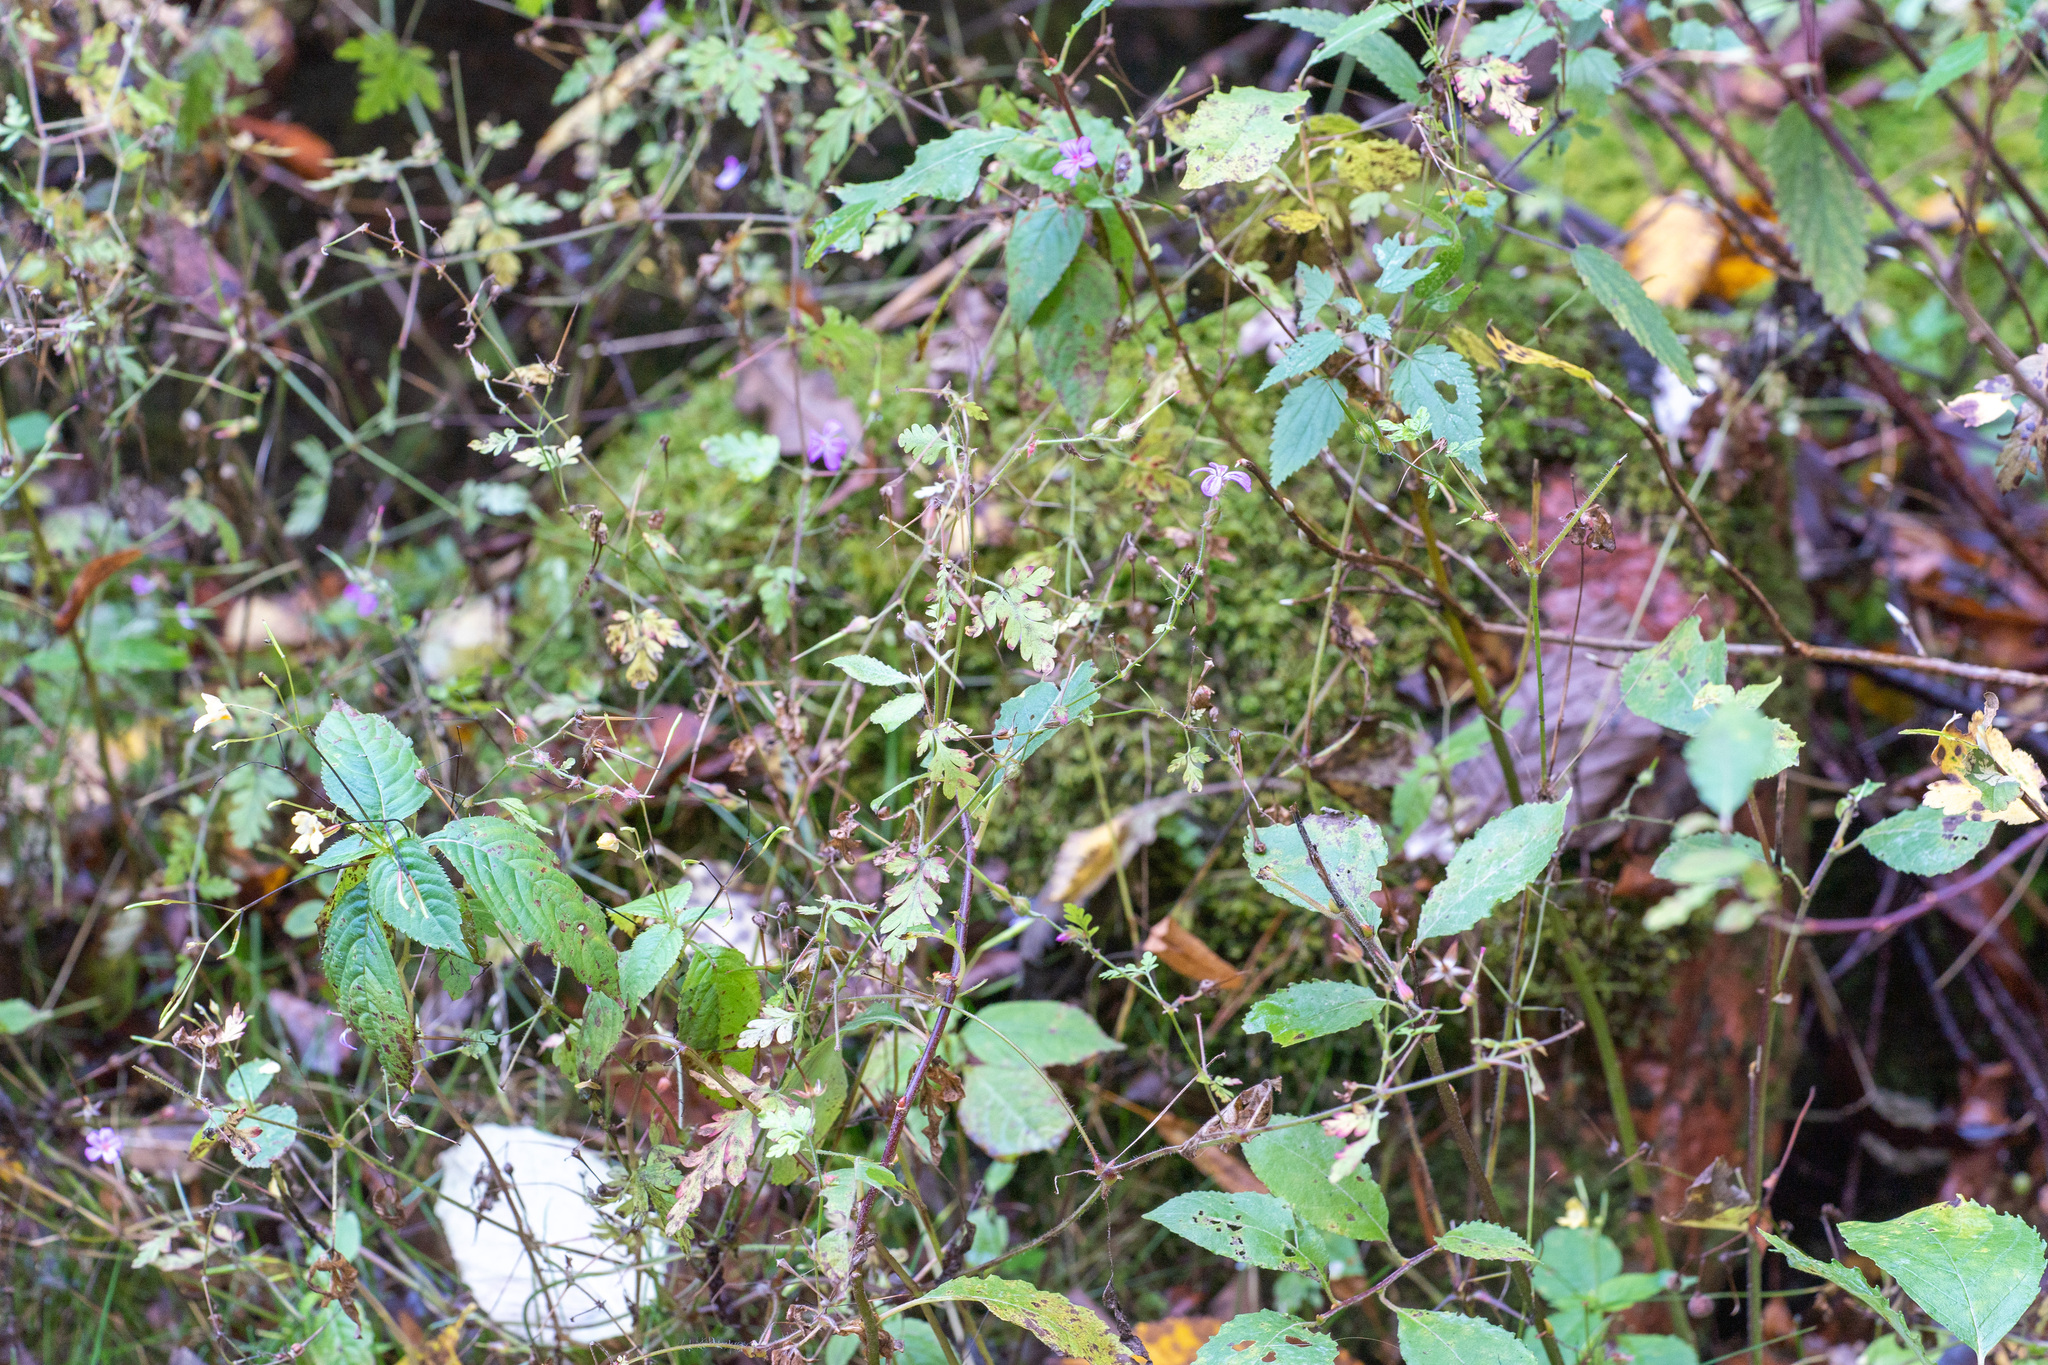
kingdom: Plantae
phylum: Tracheophyta
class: Magnoliopsida
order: Geraniales
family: Geraniaceae
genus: Geranium
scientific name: Geranium robertianum
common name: Herb-robert
